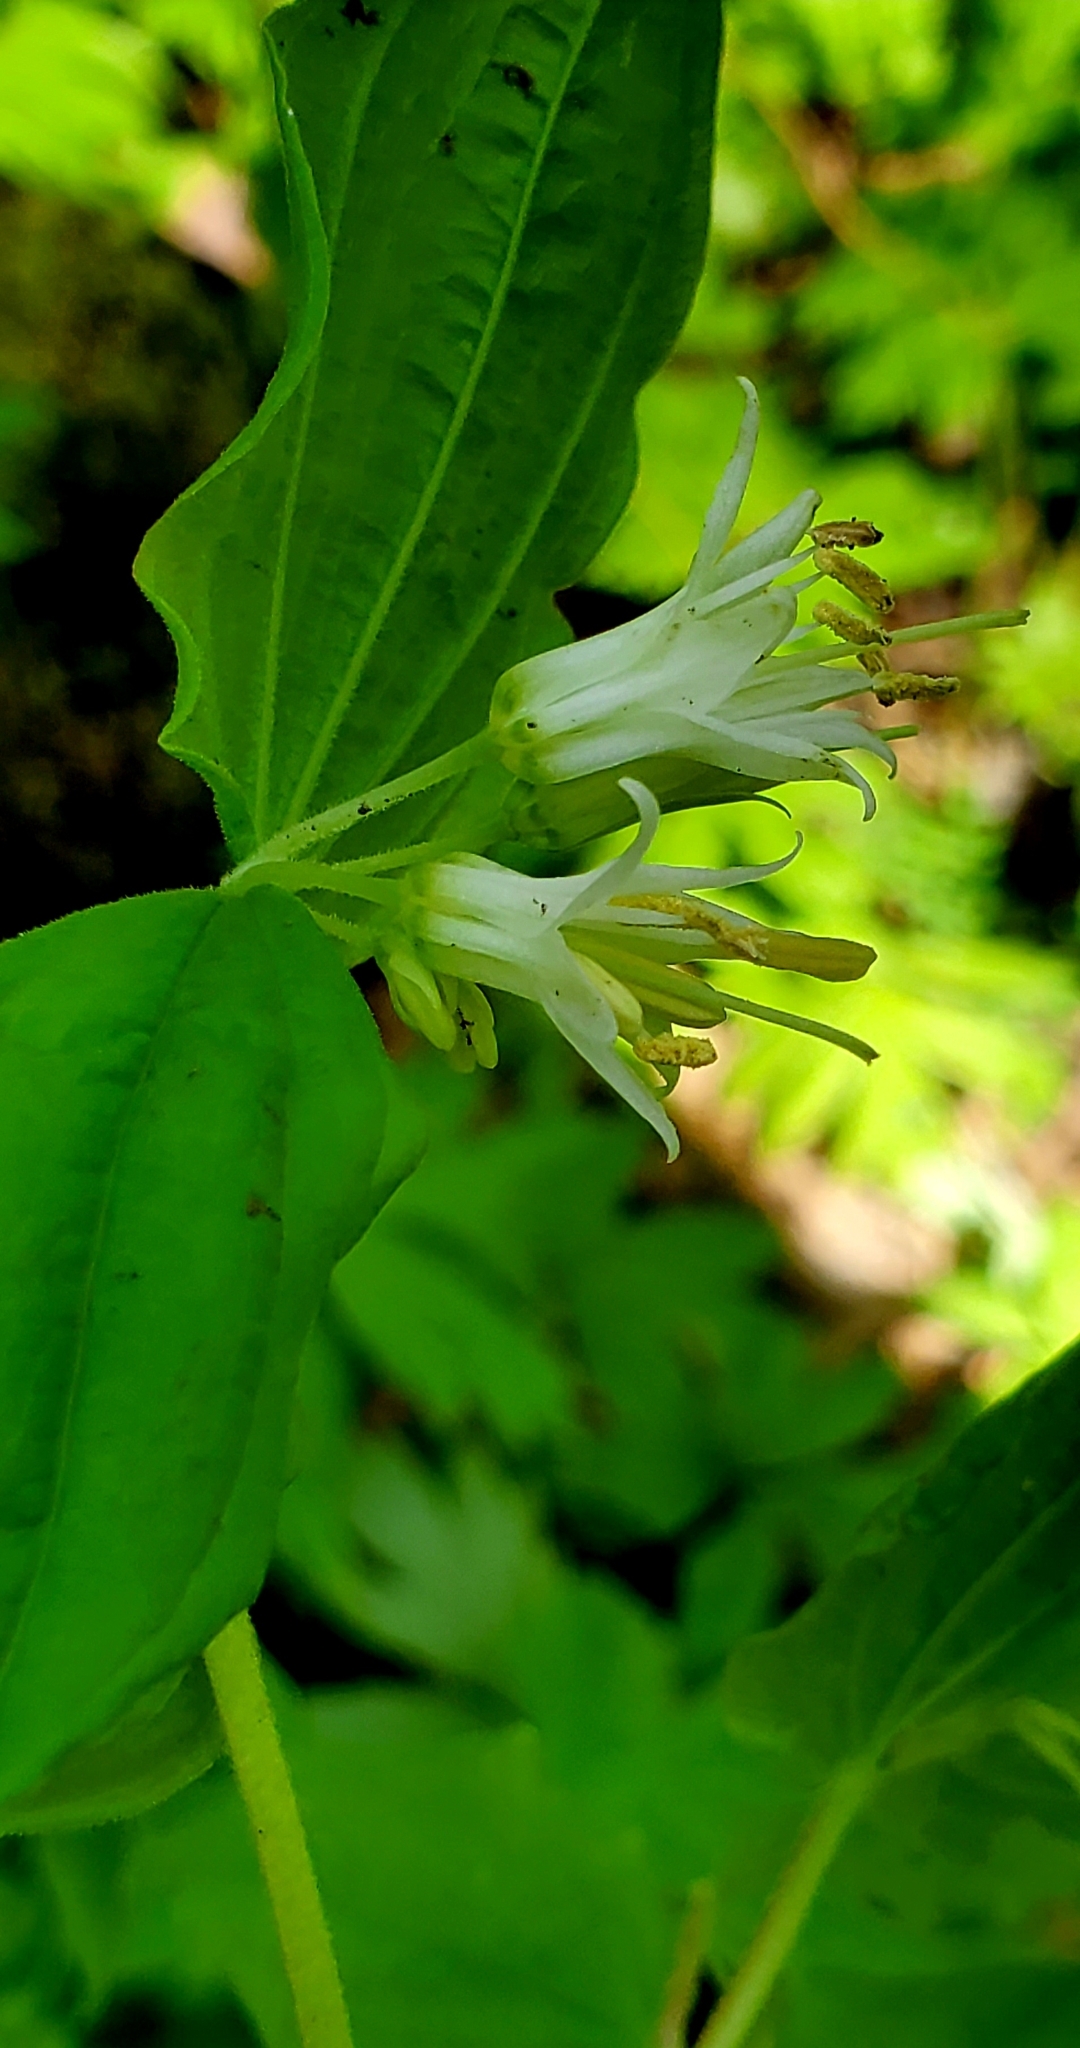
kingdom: Plantae
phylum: Tracheophyta
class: Liliopsida
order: Liliales
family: Liliaceae
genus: Prosartes
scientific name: Prosartes hookeri
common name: Fairy-bells
